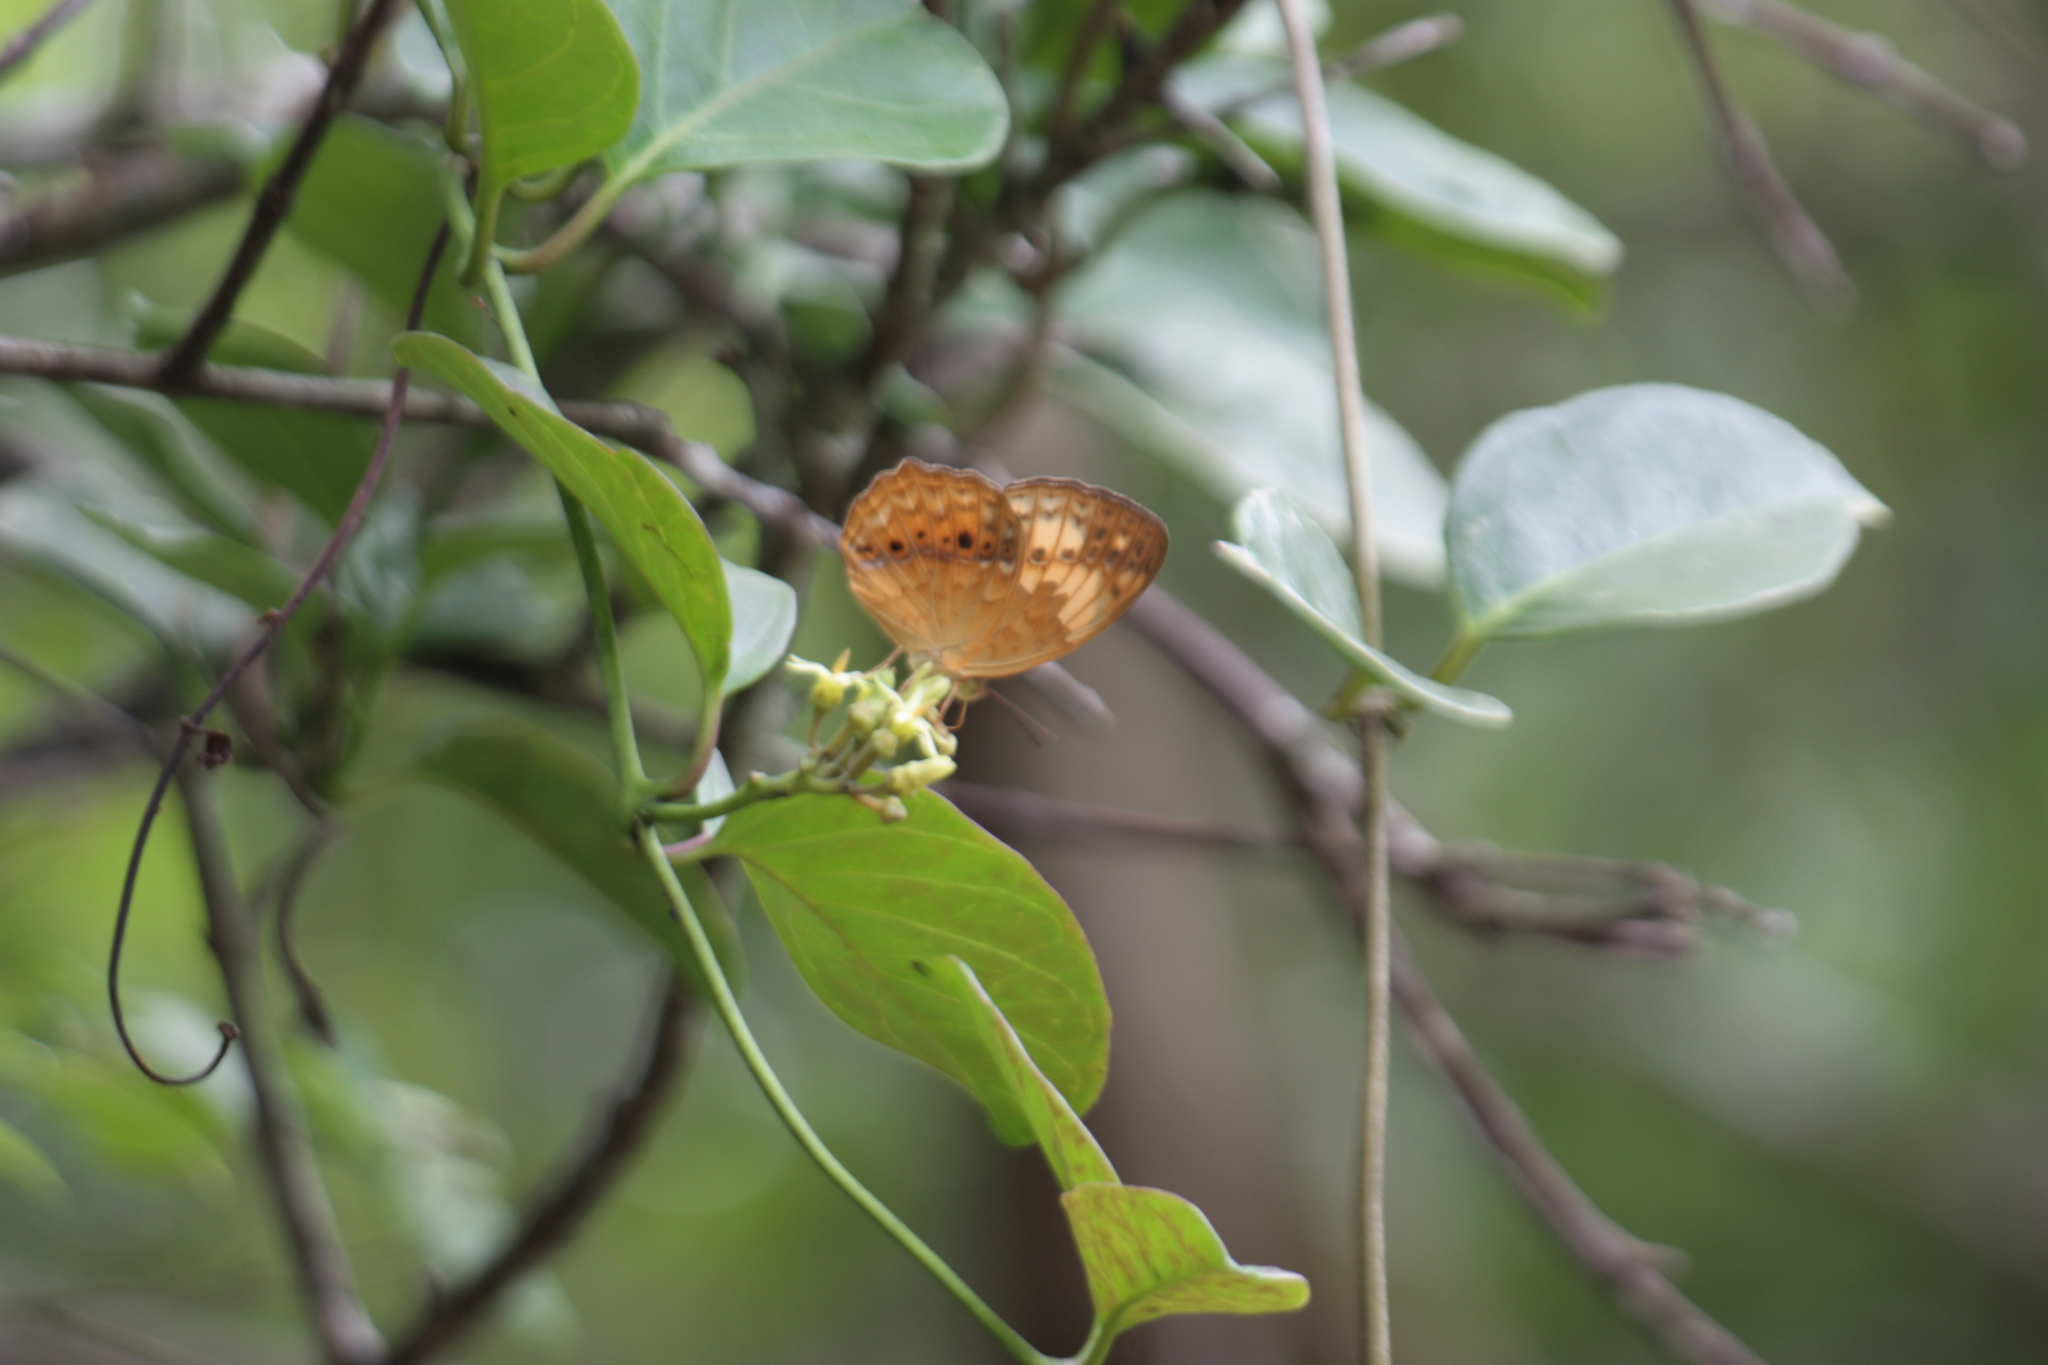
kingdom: Animalia
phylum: Arthropoda
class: Insecta
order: Lepidoptera
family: Nymphalidae
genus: Cupha
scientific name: Cupha erymanthis
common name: Rustic
